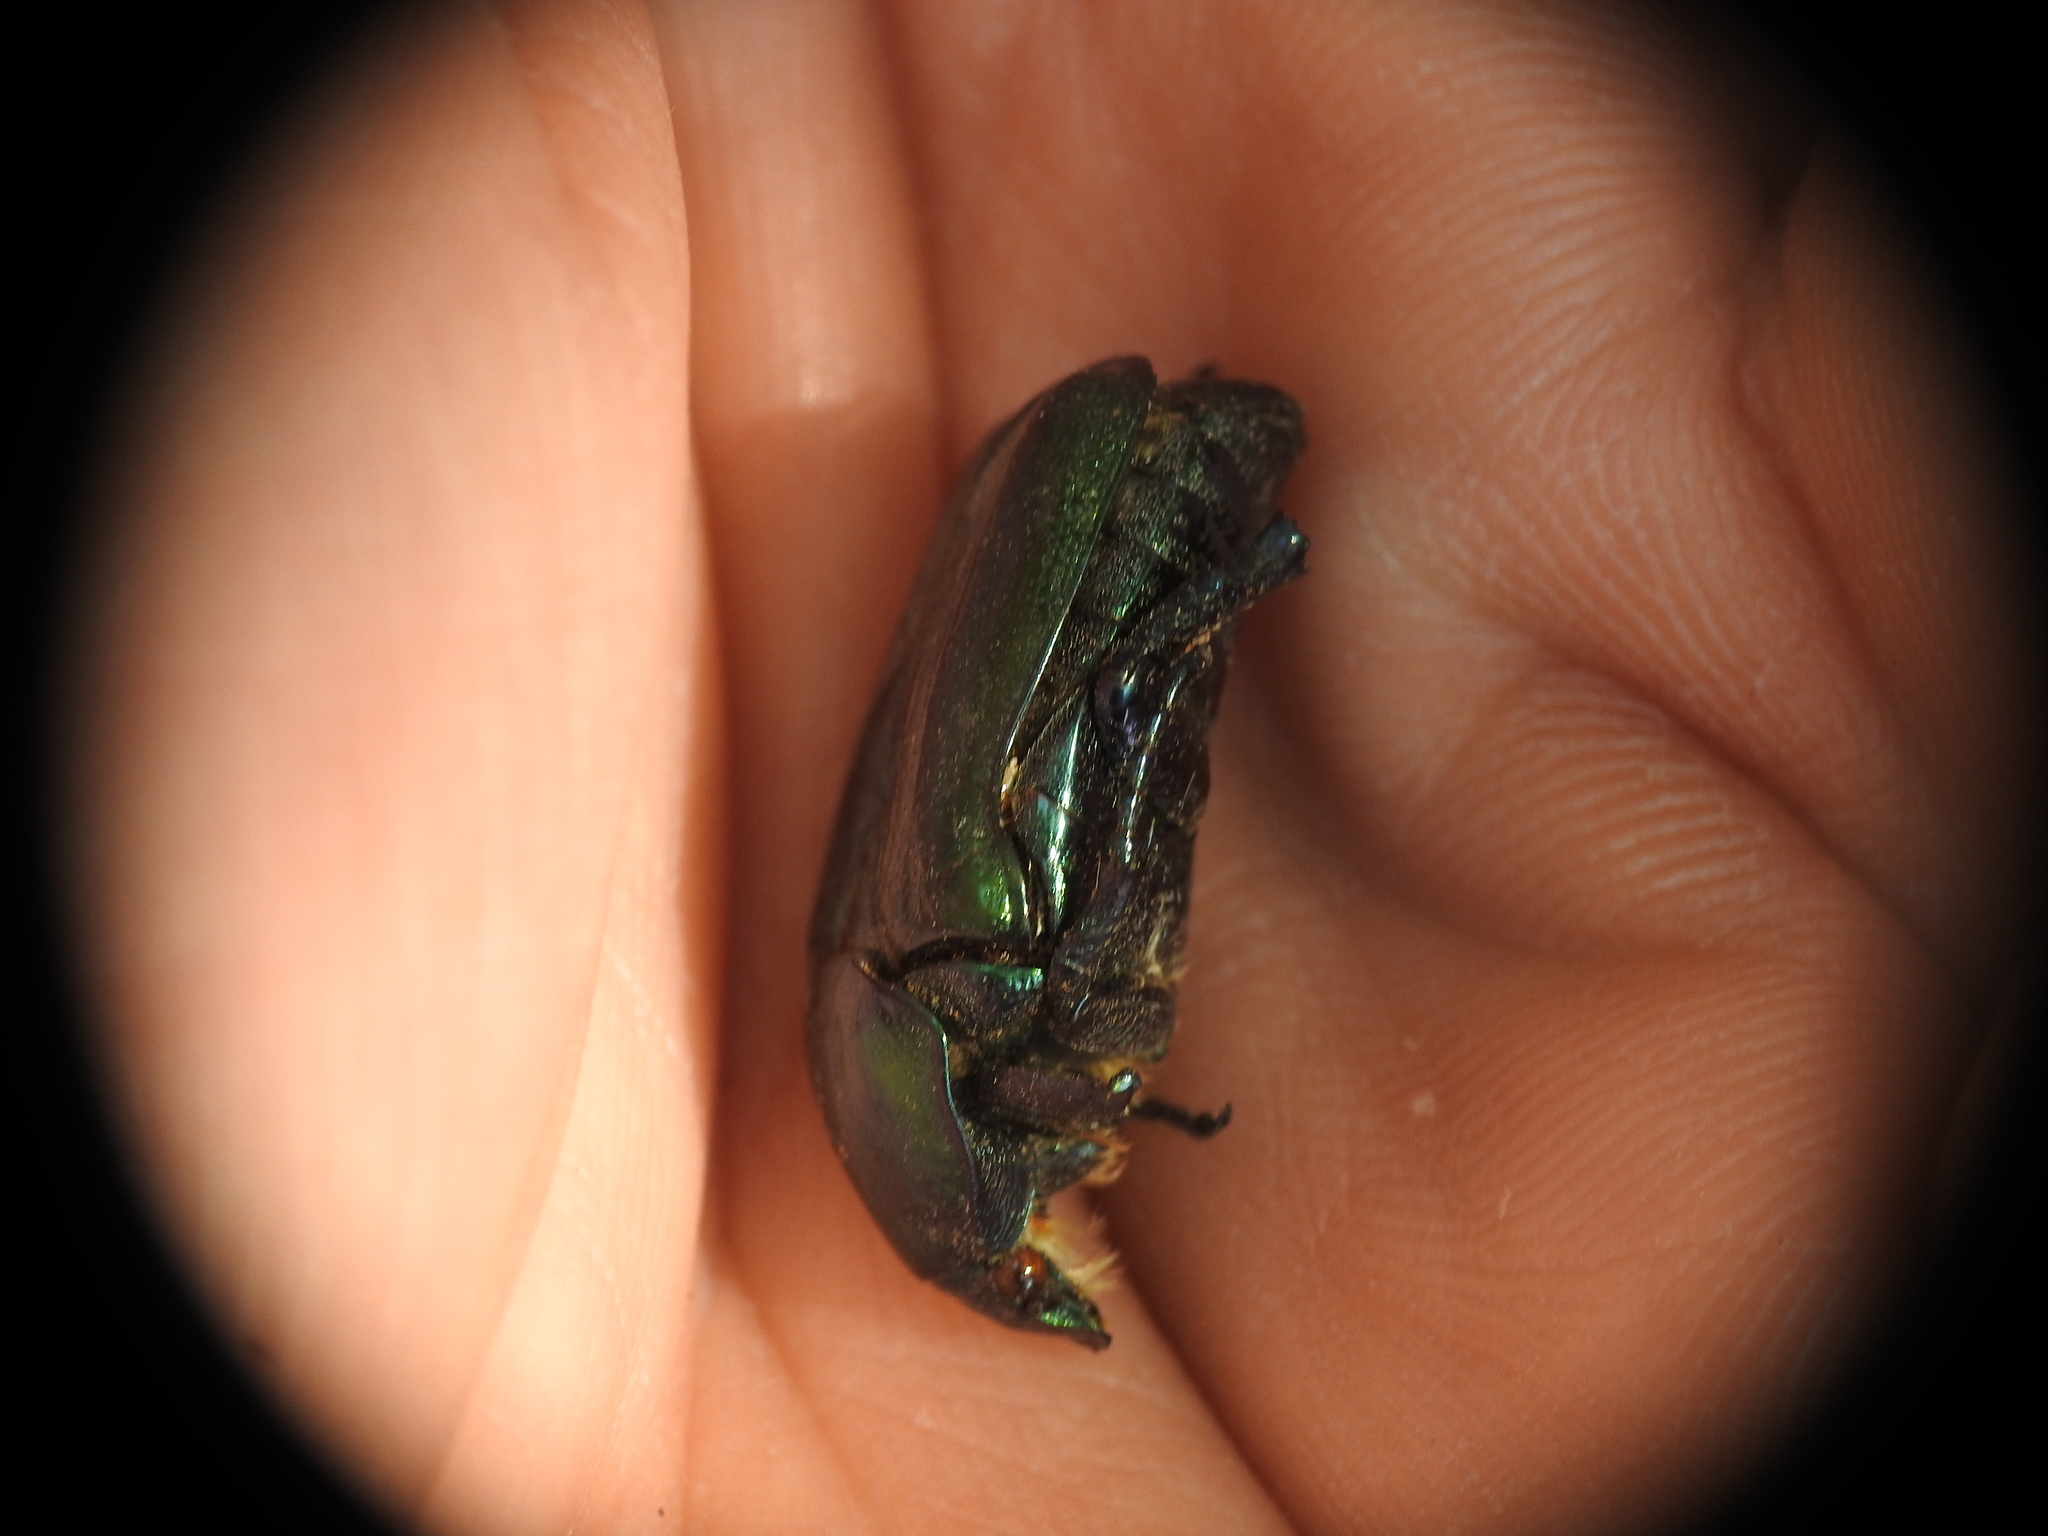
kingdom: Animalia
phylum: Arthropoda
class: Insecta
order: Coleoptera
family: Scarabaeidae
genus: Protaetia
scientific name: Protaetia angustata
